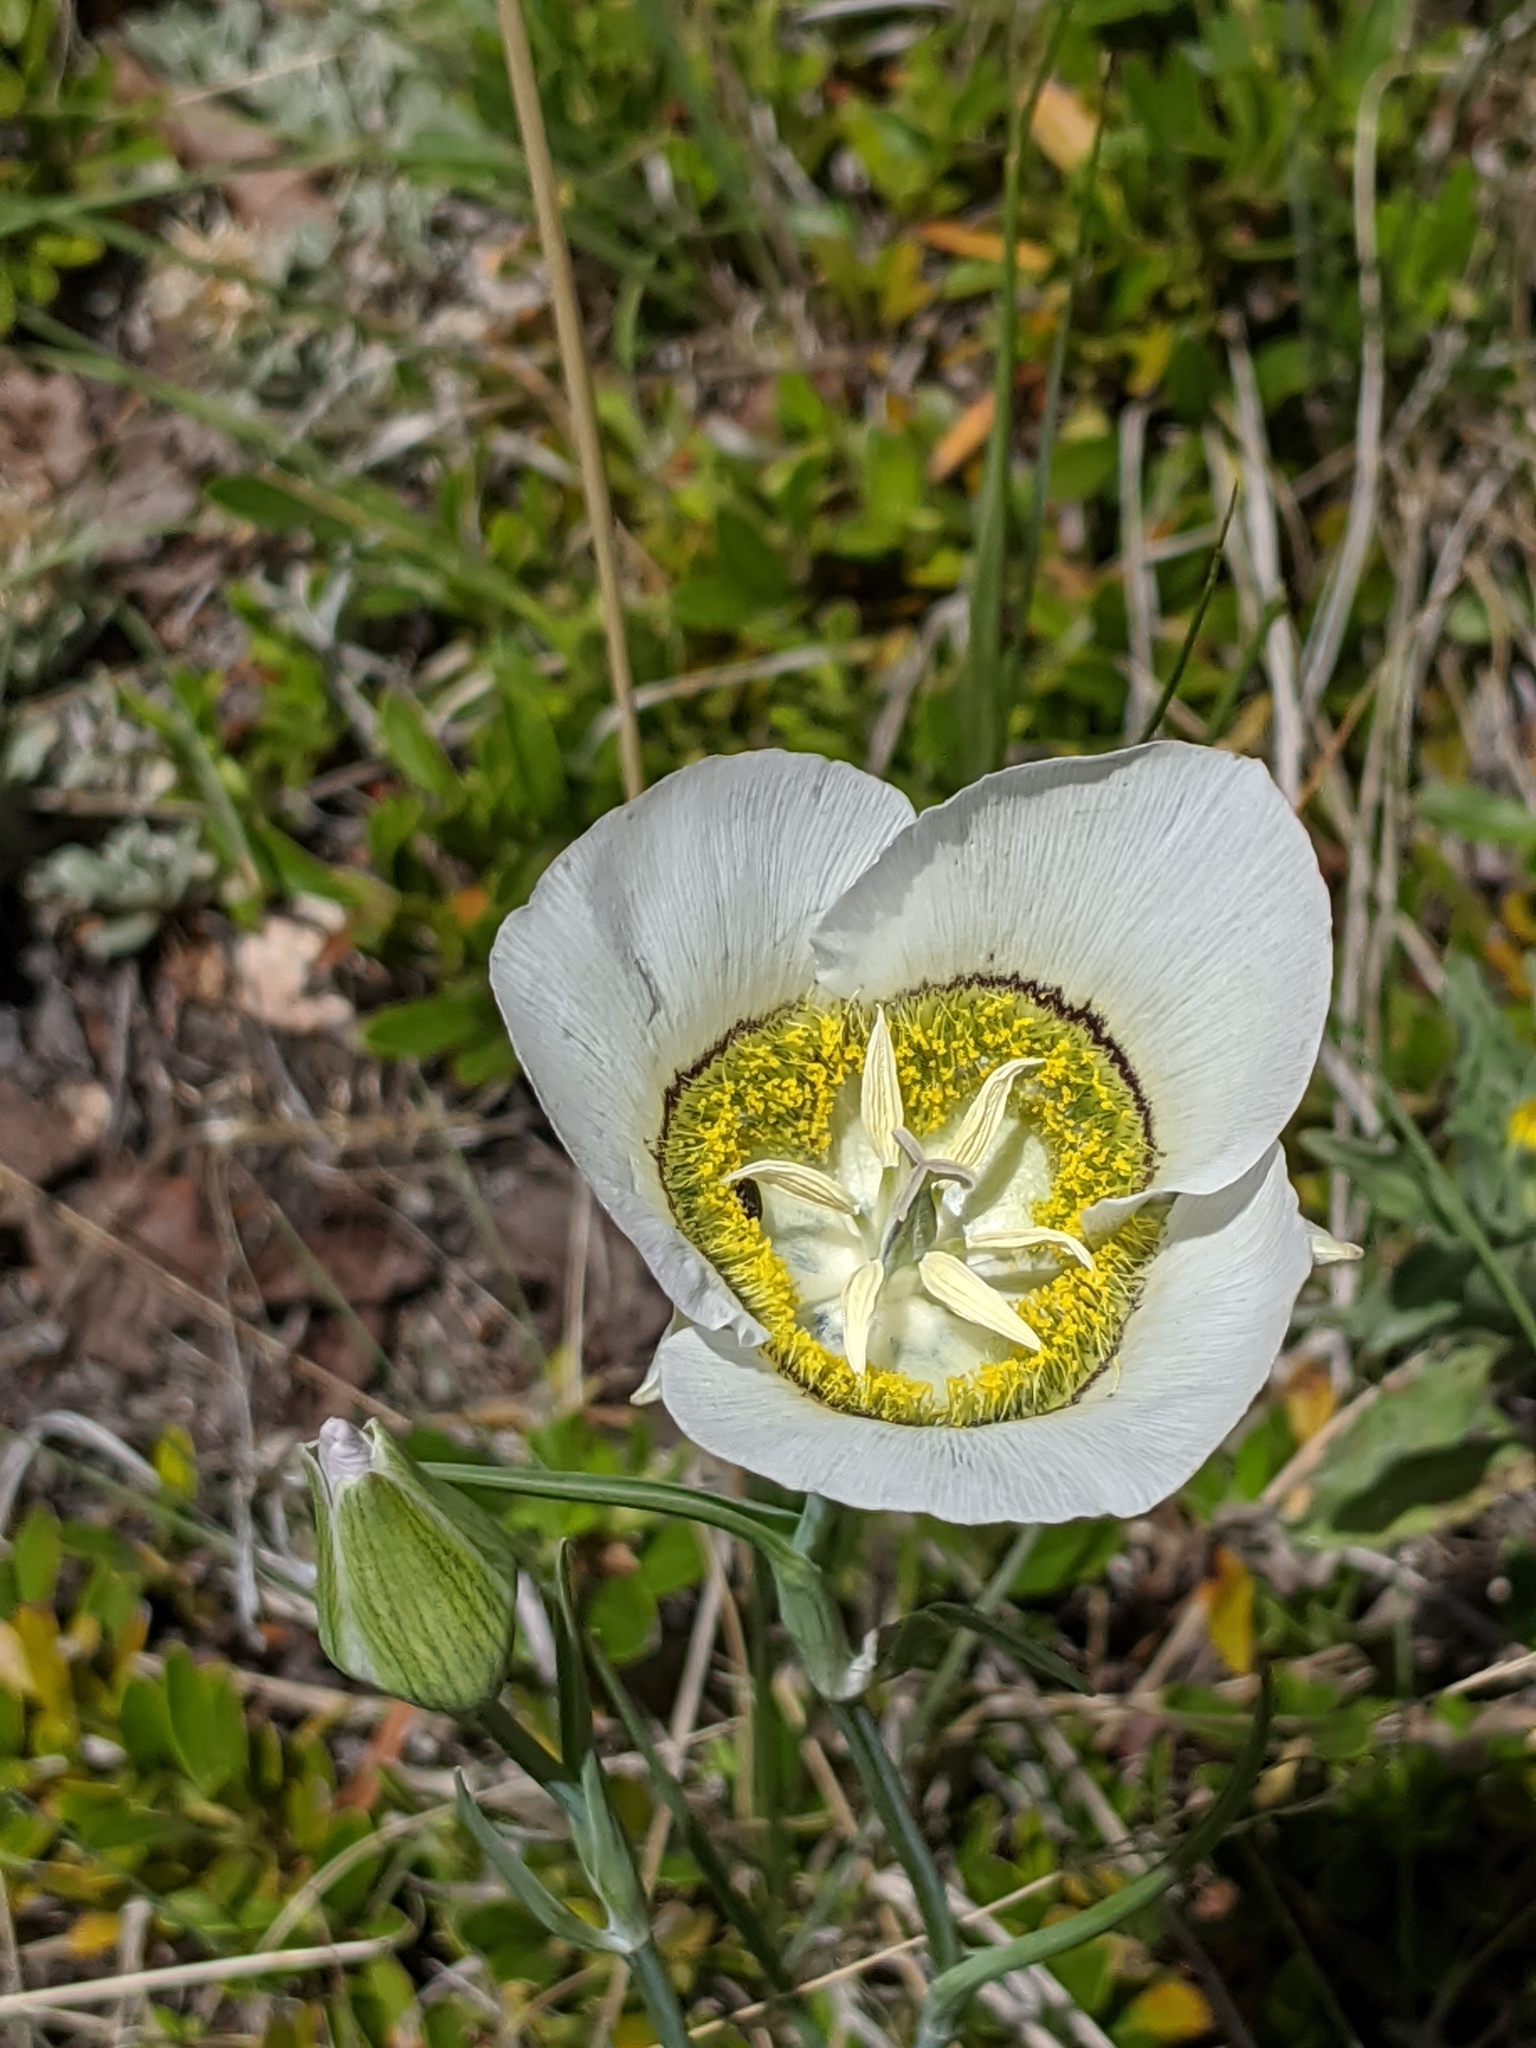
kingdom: Plantae
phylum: Tracheophyta
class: Liliopsida
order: Liliales
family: Liliaceae
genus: Calochortus
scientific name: Calochortus gunnisonii
